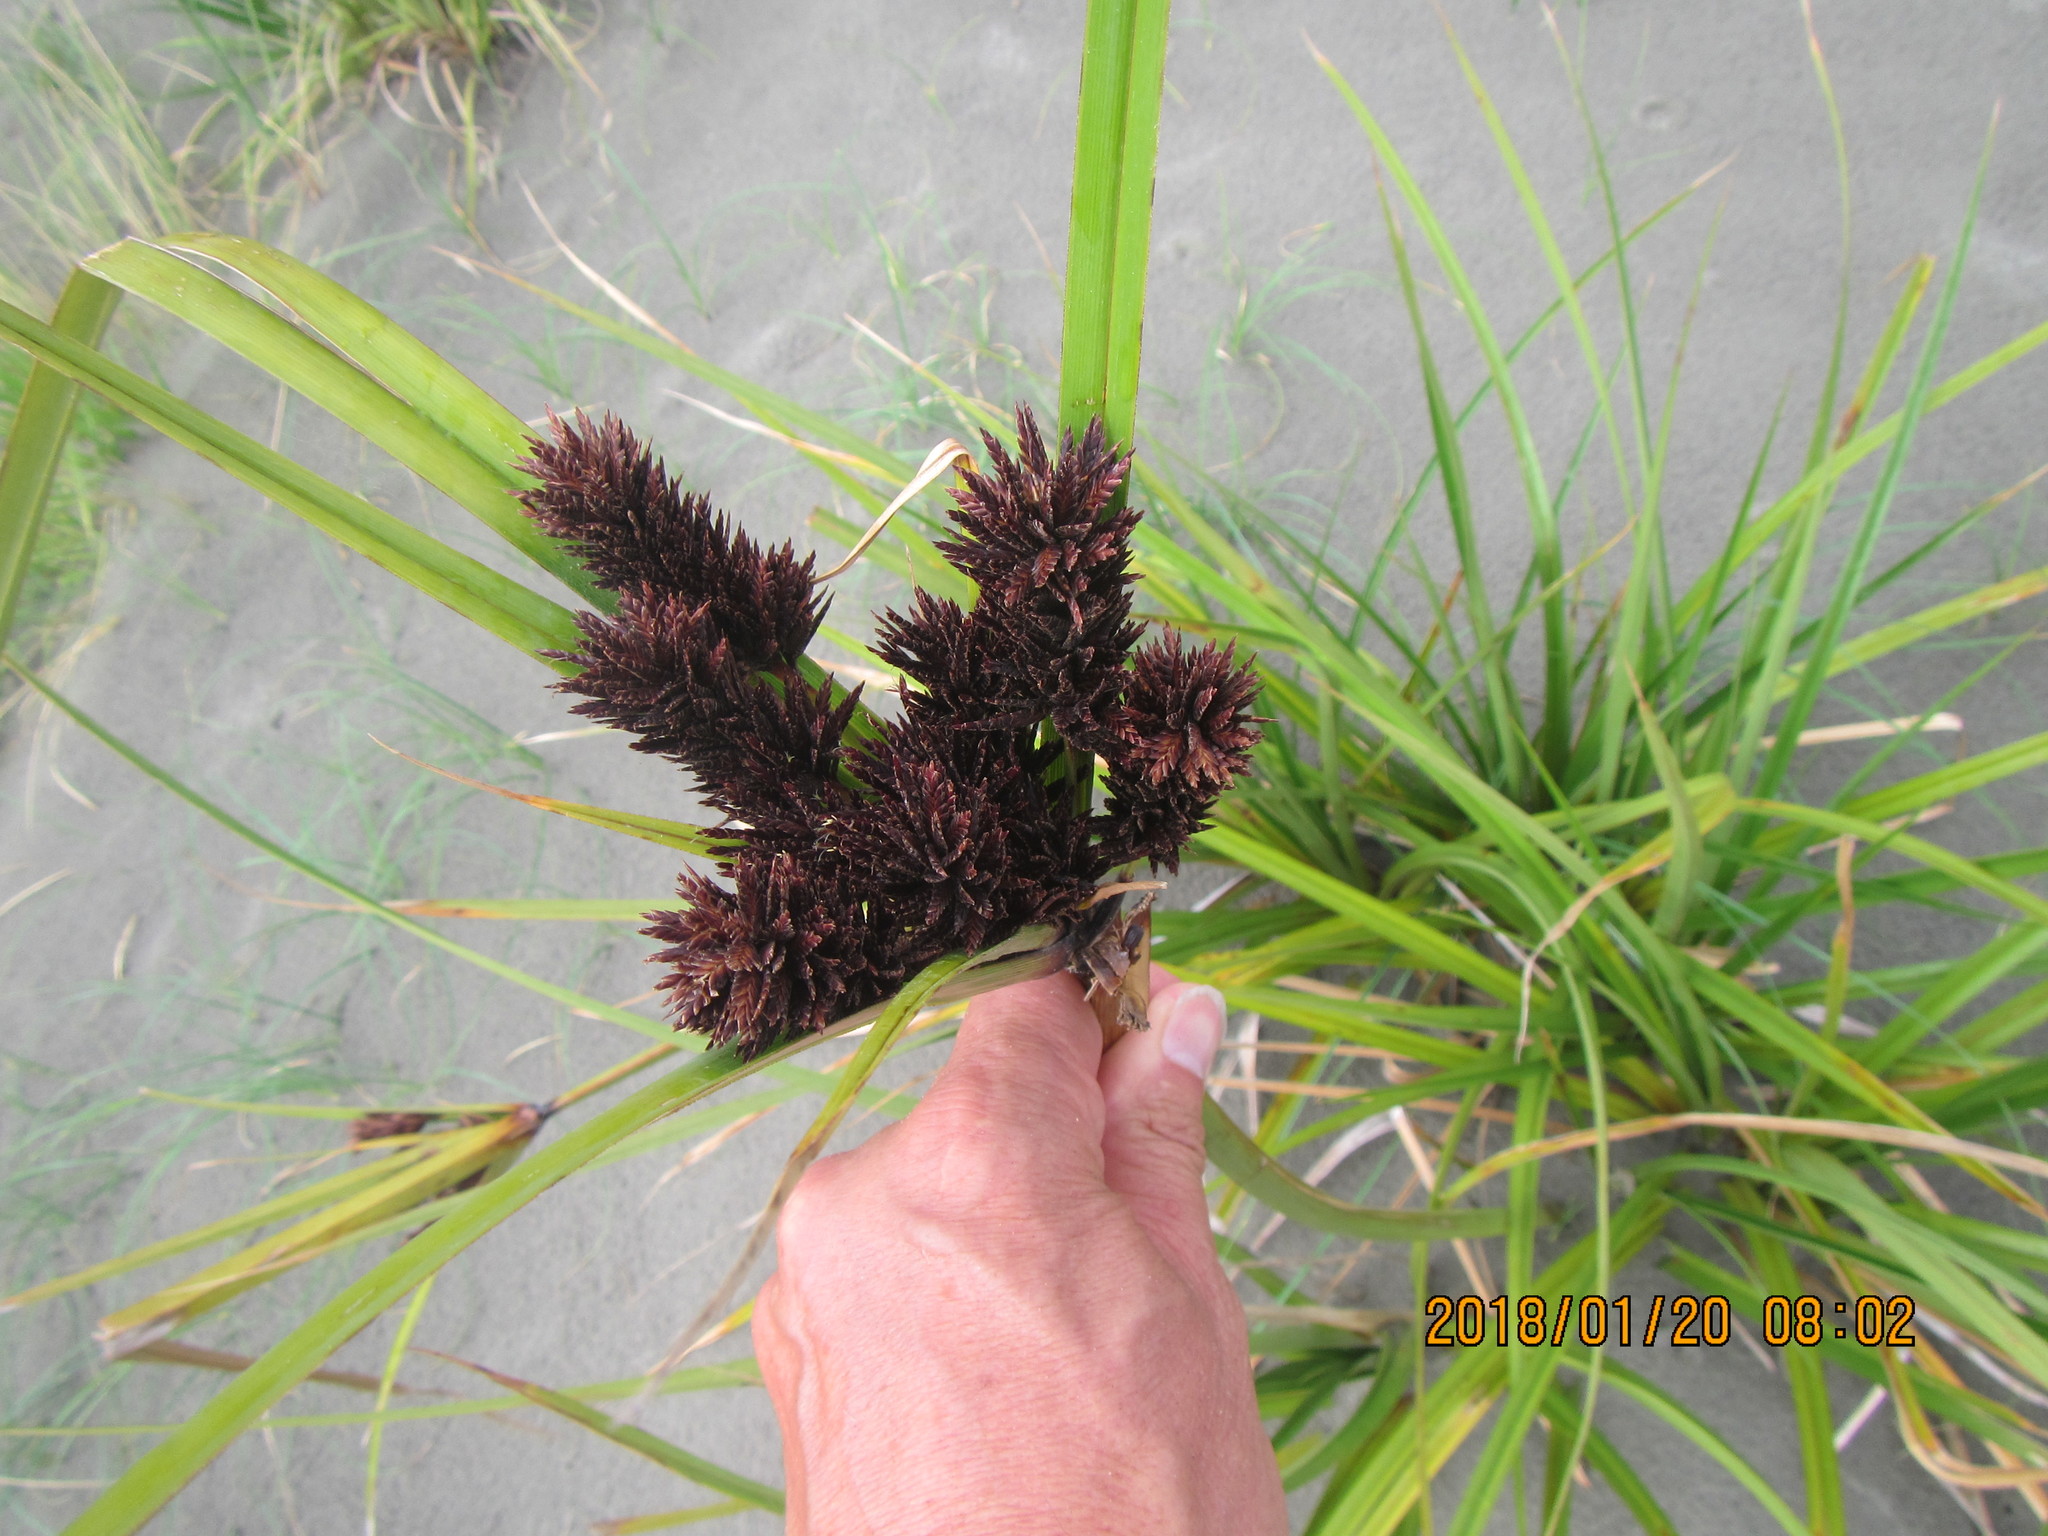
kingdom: Plantae
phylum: Tracheophyta
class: Liliopsida
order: Poales
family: Cyperaceae
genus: Cyperus
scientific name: Cyperus ustulatus
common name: Giant umbrella-sedge
